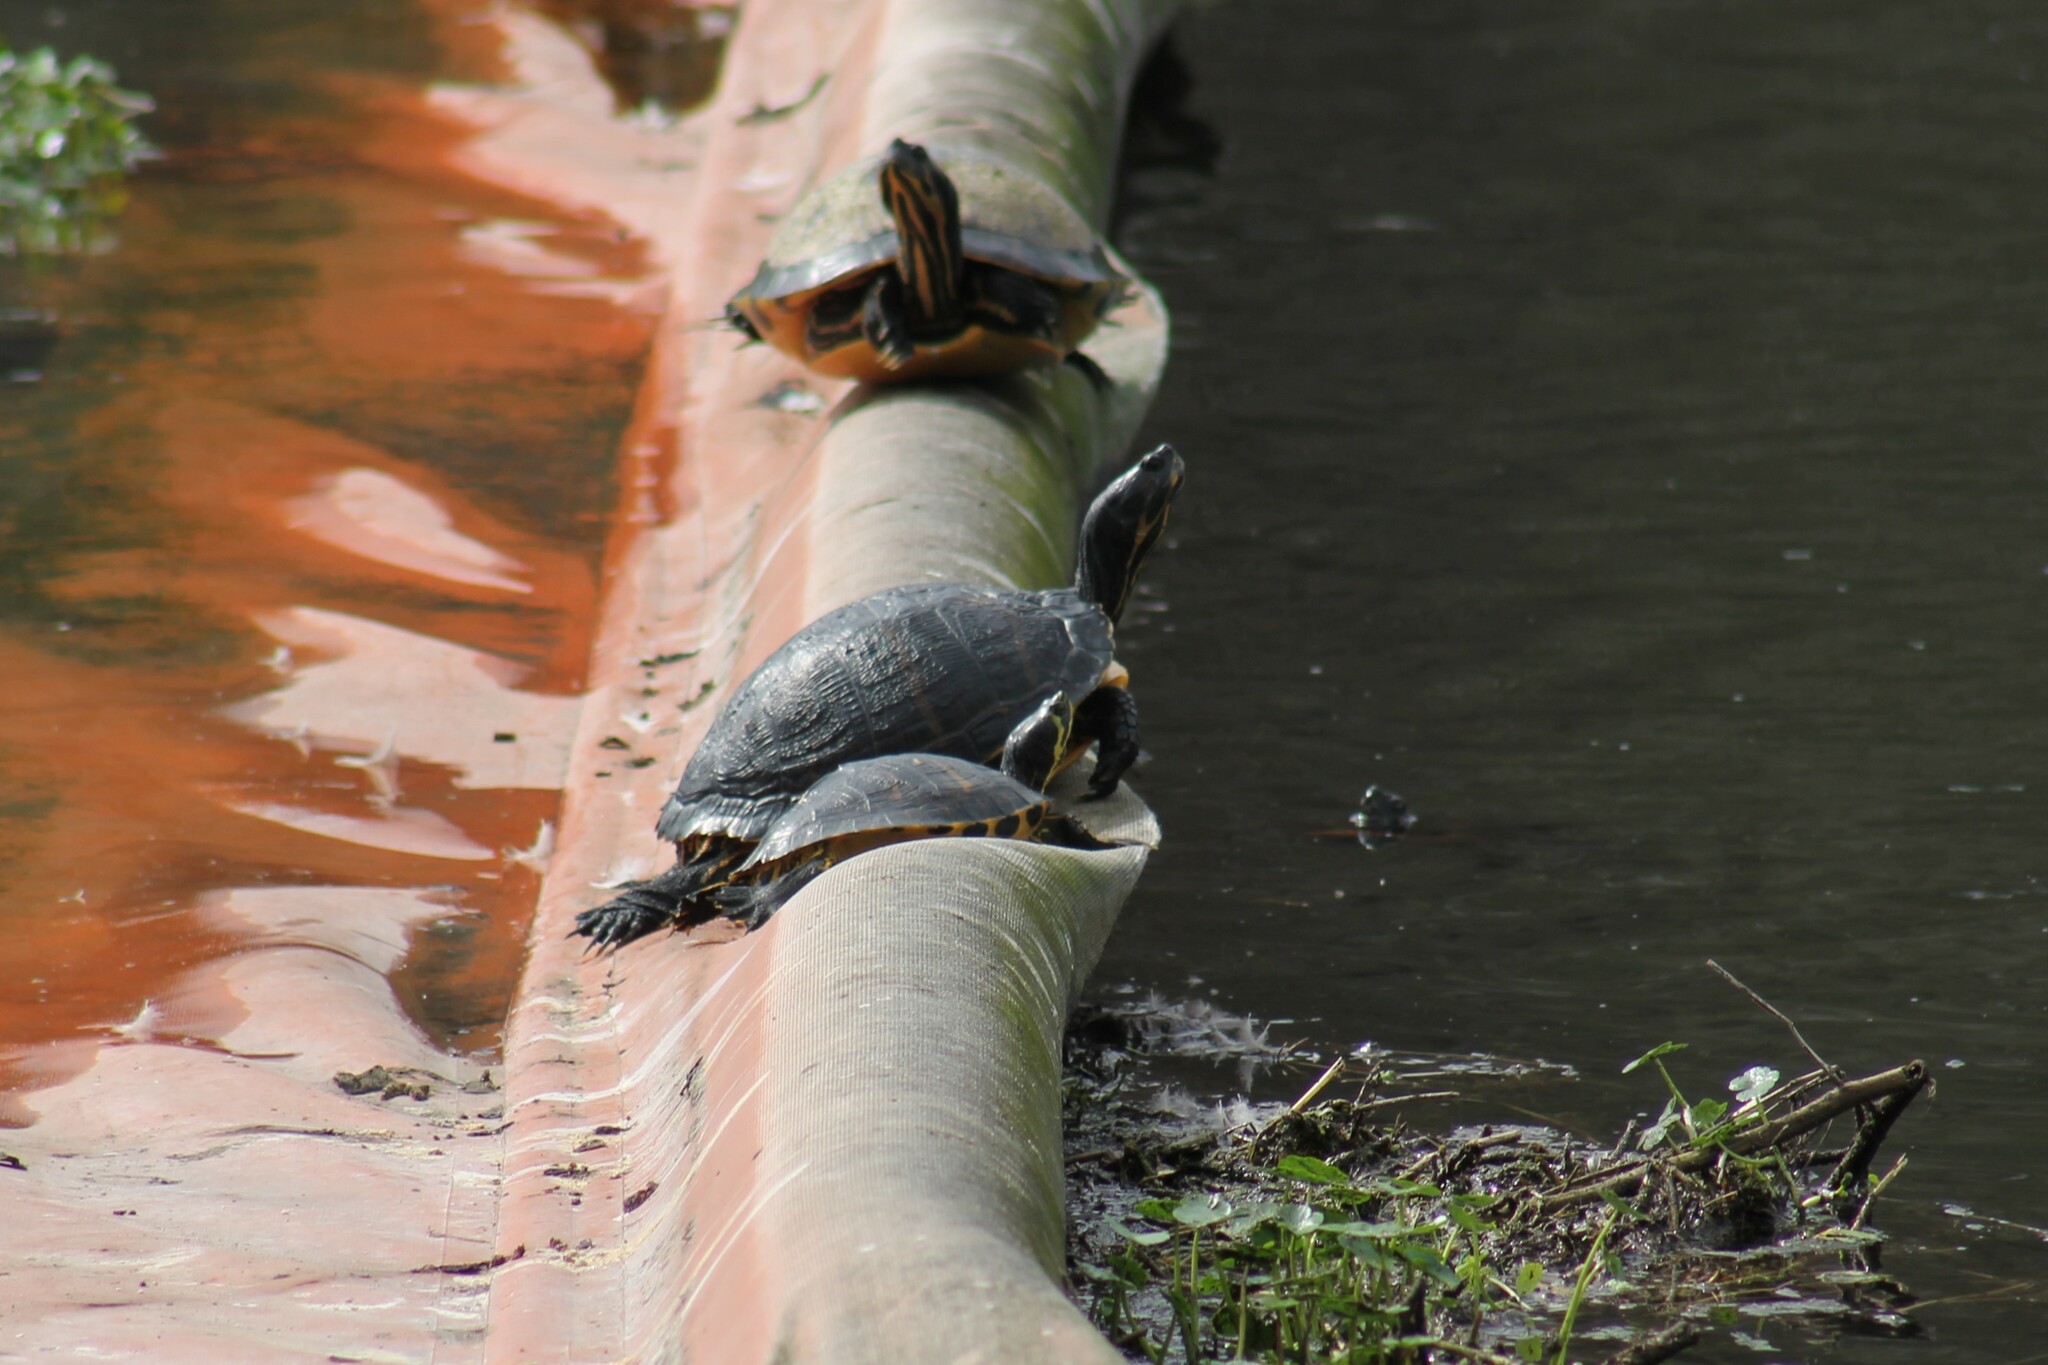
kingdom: Animalia
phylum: Chordata
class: Testudines
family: Emydidae
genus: Trachemys
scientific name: Trachemys scripta
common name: Slider
